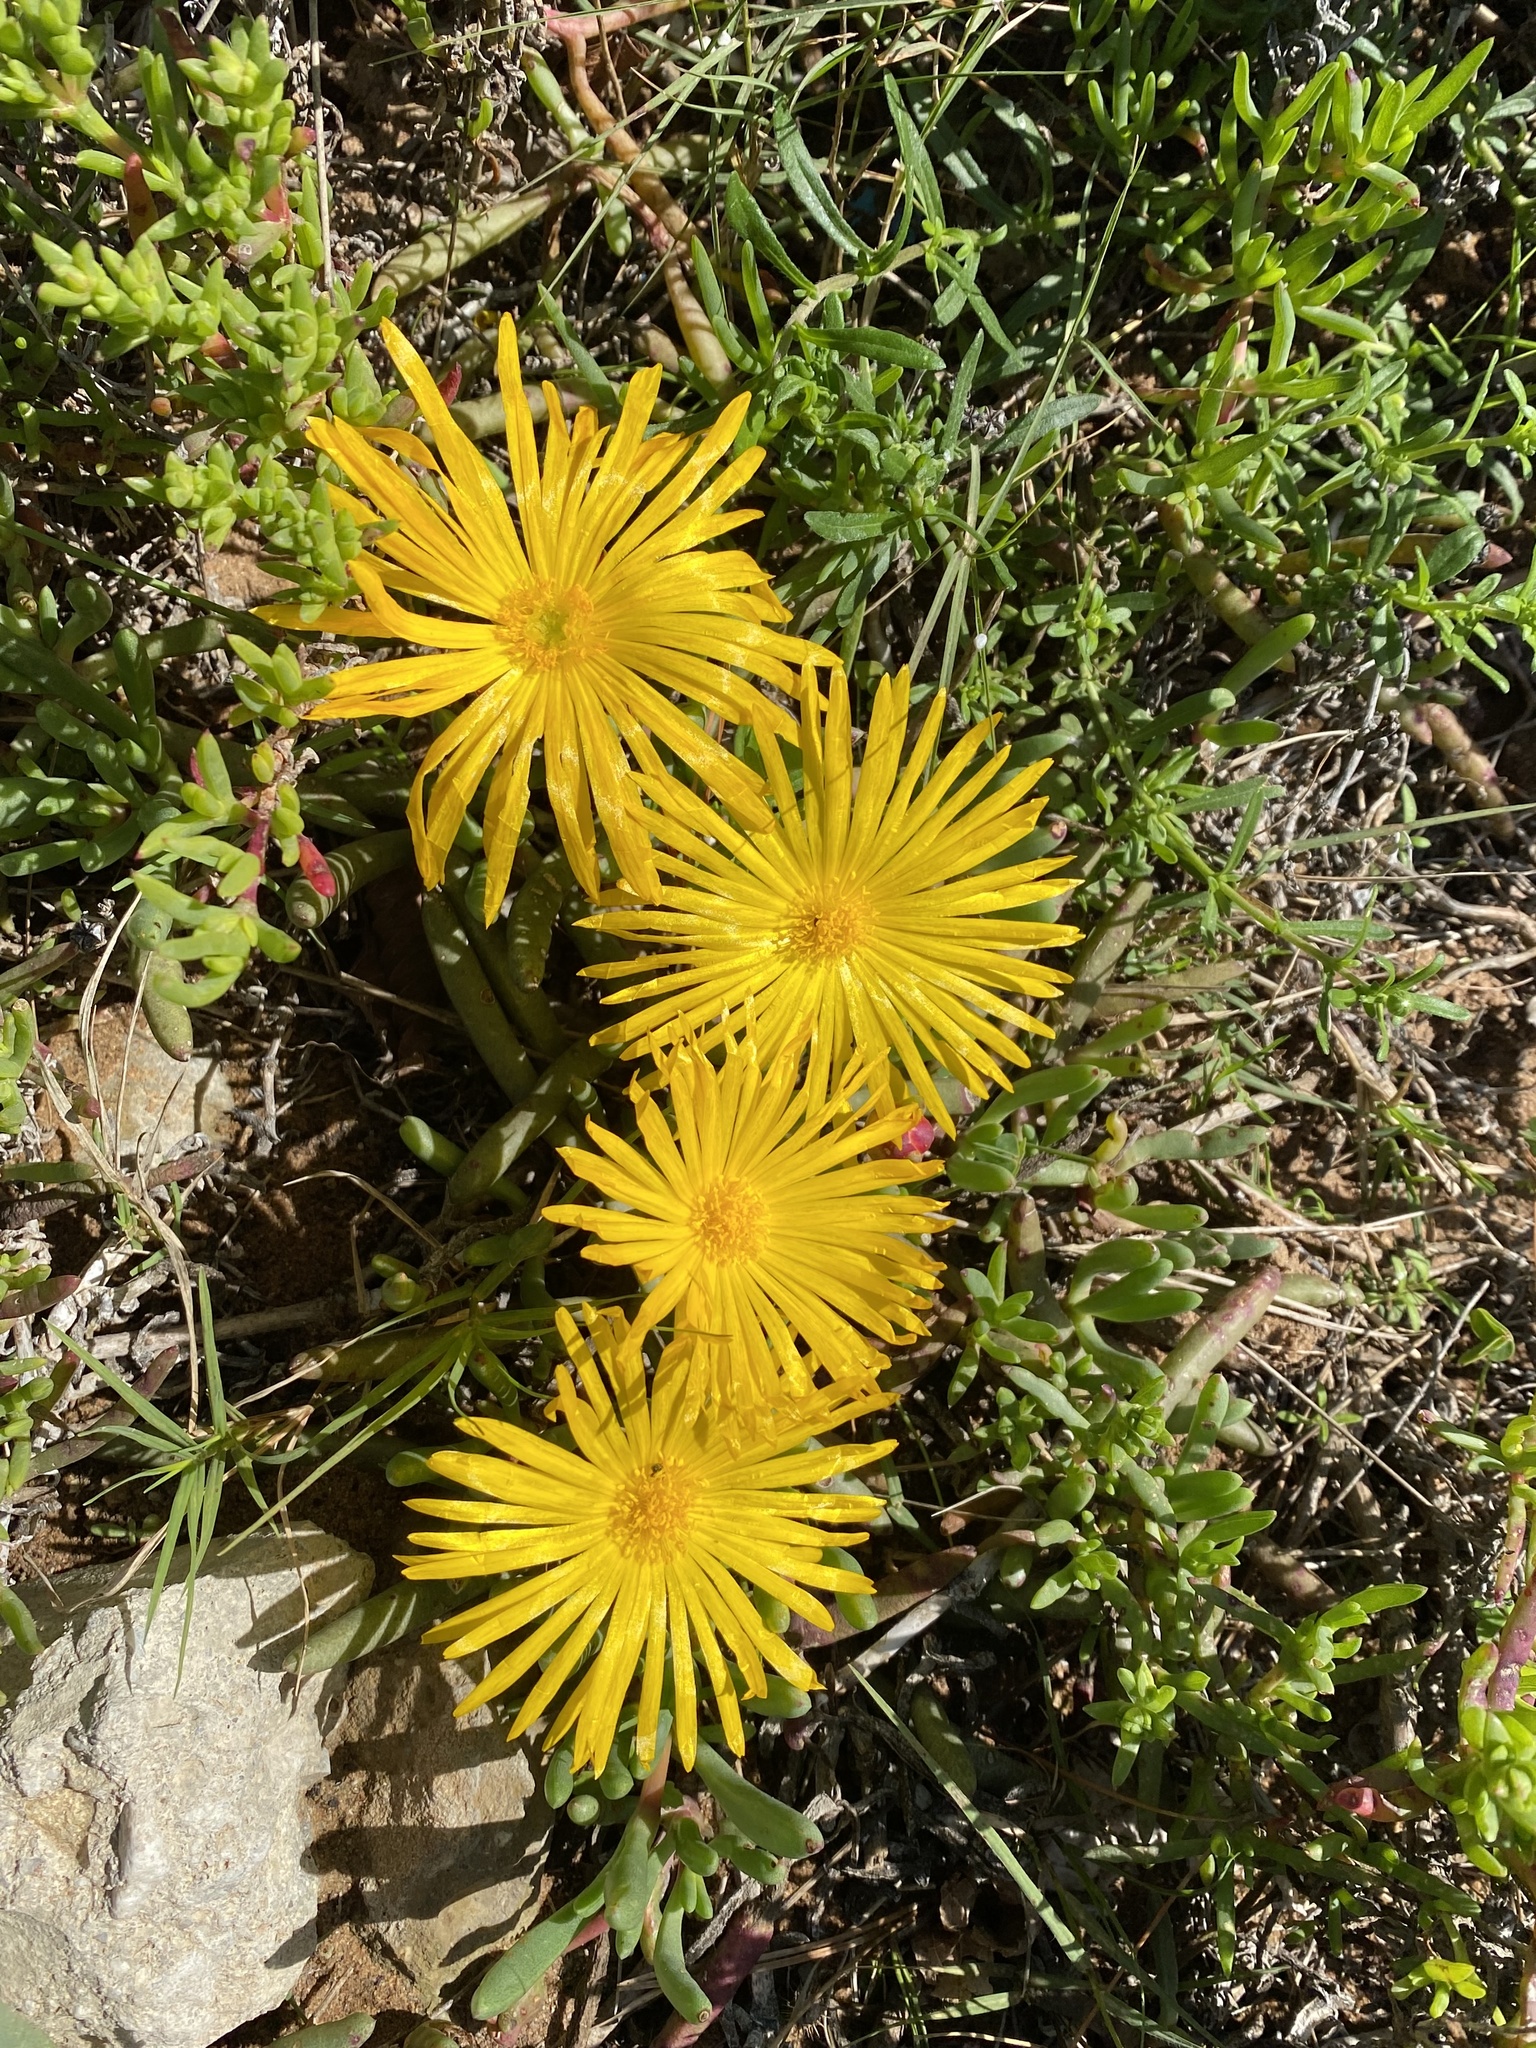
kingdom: Plantae
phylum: Tracheophyta
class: Magnoliopsida
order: Caryophyllales
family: Aizoaceae
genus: Jordaaniella
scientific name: Jordaaniella dubia
